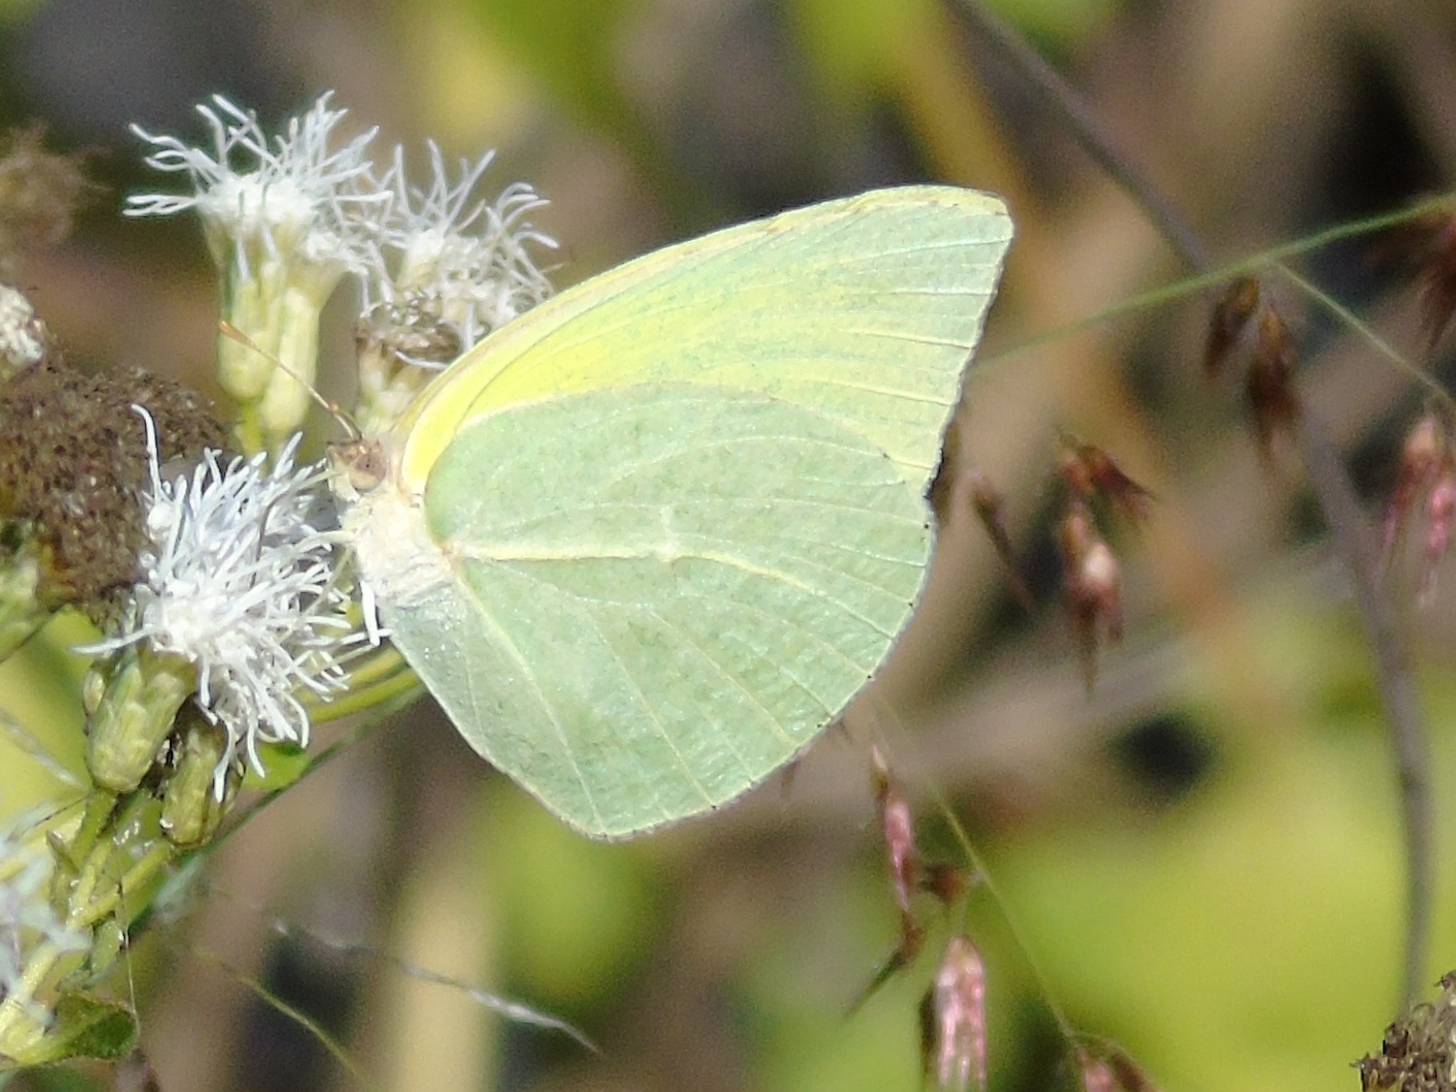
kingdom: Animalia
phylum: Arthropoda
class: Insecta
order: Lepidoptera
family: Pieridae
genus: Kricogonia
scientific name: Kricogonia lyside
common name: Guayacan sulphur,
